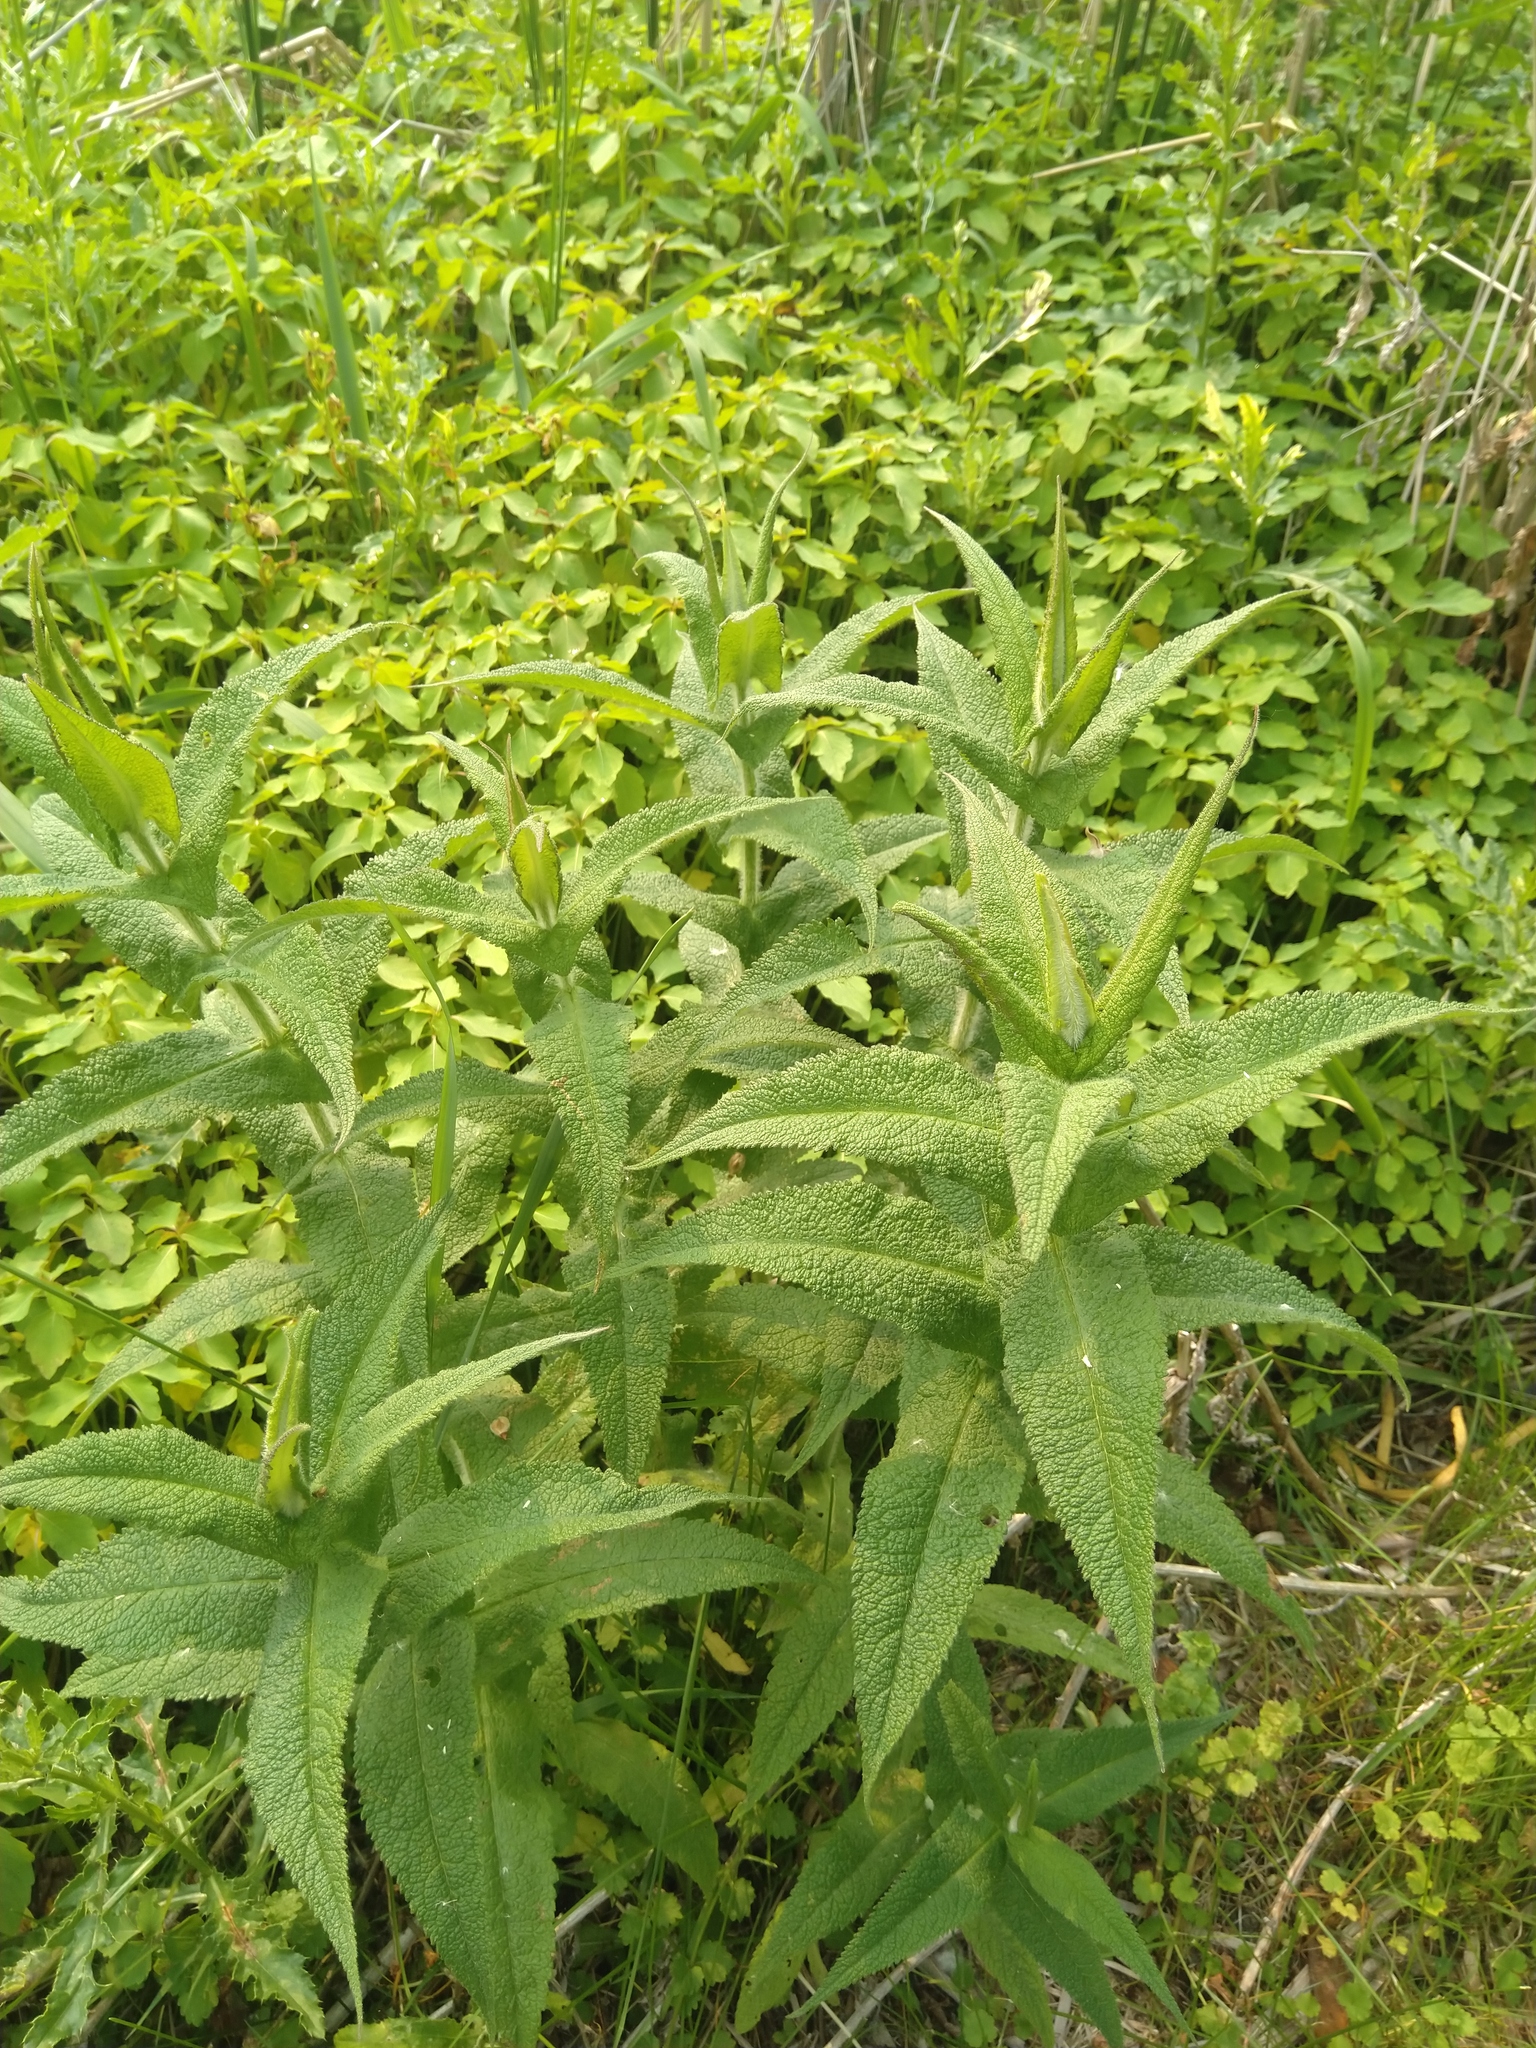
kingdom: Plantae
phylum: Tracheophyta
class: Magnoliopsida
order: Asterales
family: Asteraceae
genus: Eupatorium
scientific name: Eupatorium perfoliatum
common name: Boneset
